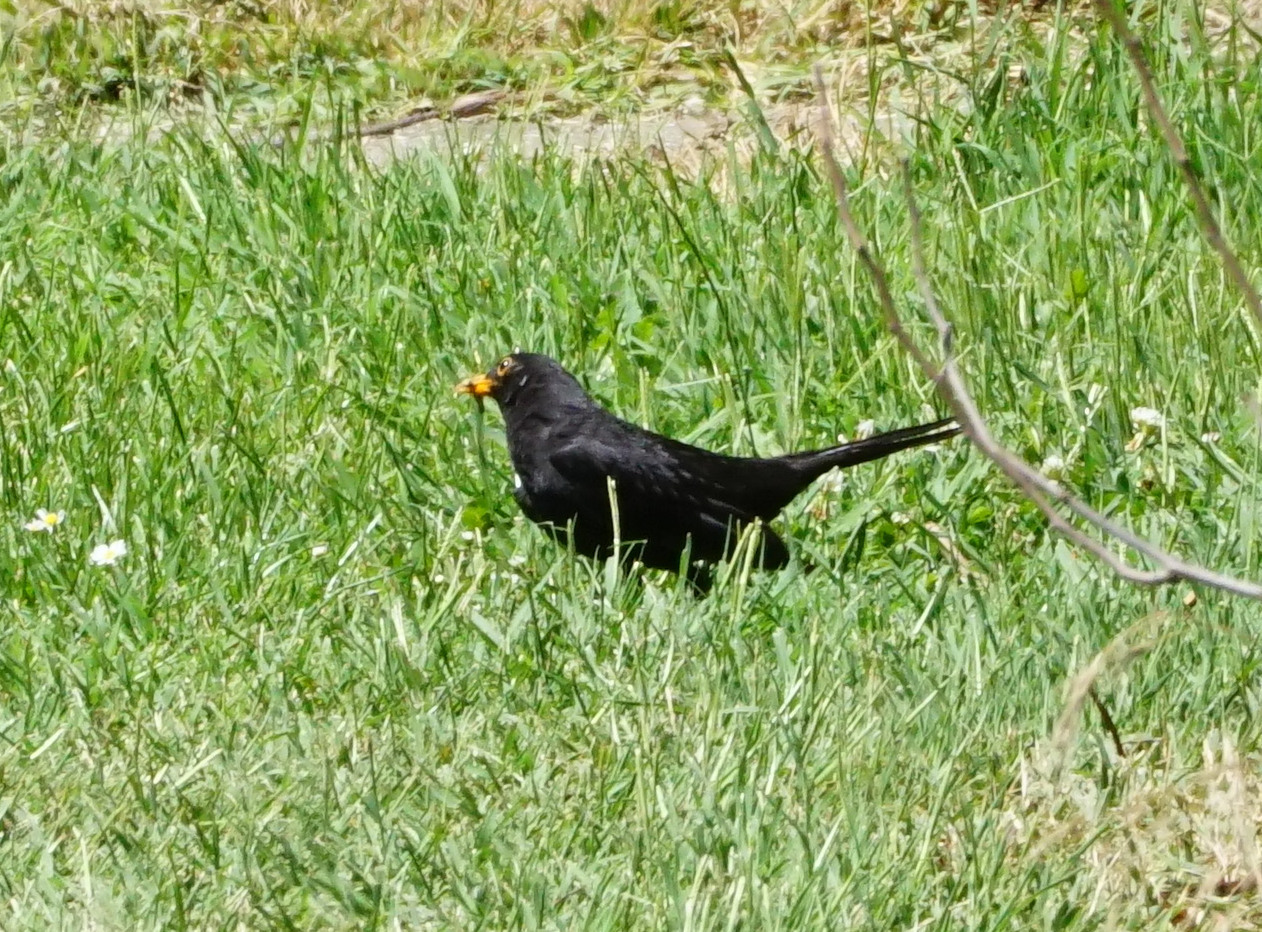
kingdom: Animalia
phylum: Chordata
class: Aves
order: Passeriformes
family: Turdidae
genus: Turdus
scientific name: Turdus merula
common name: Common blackbird
